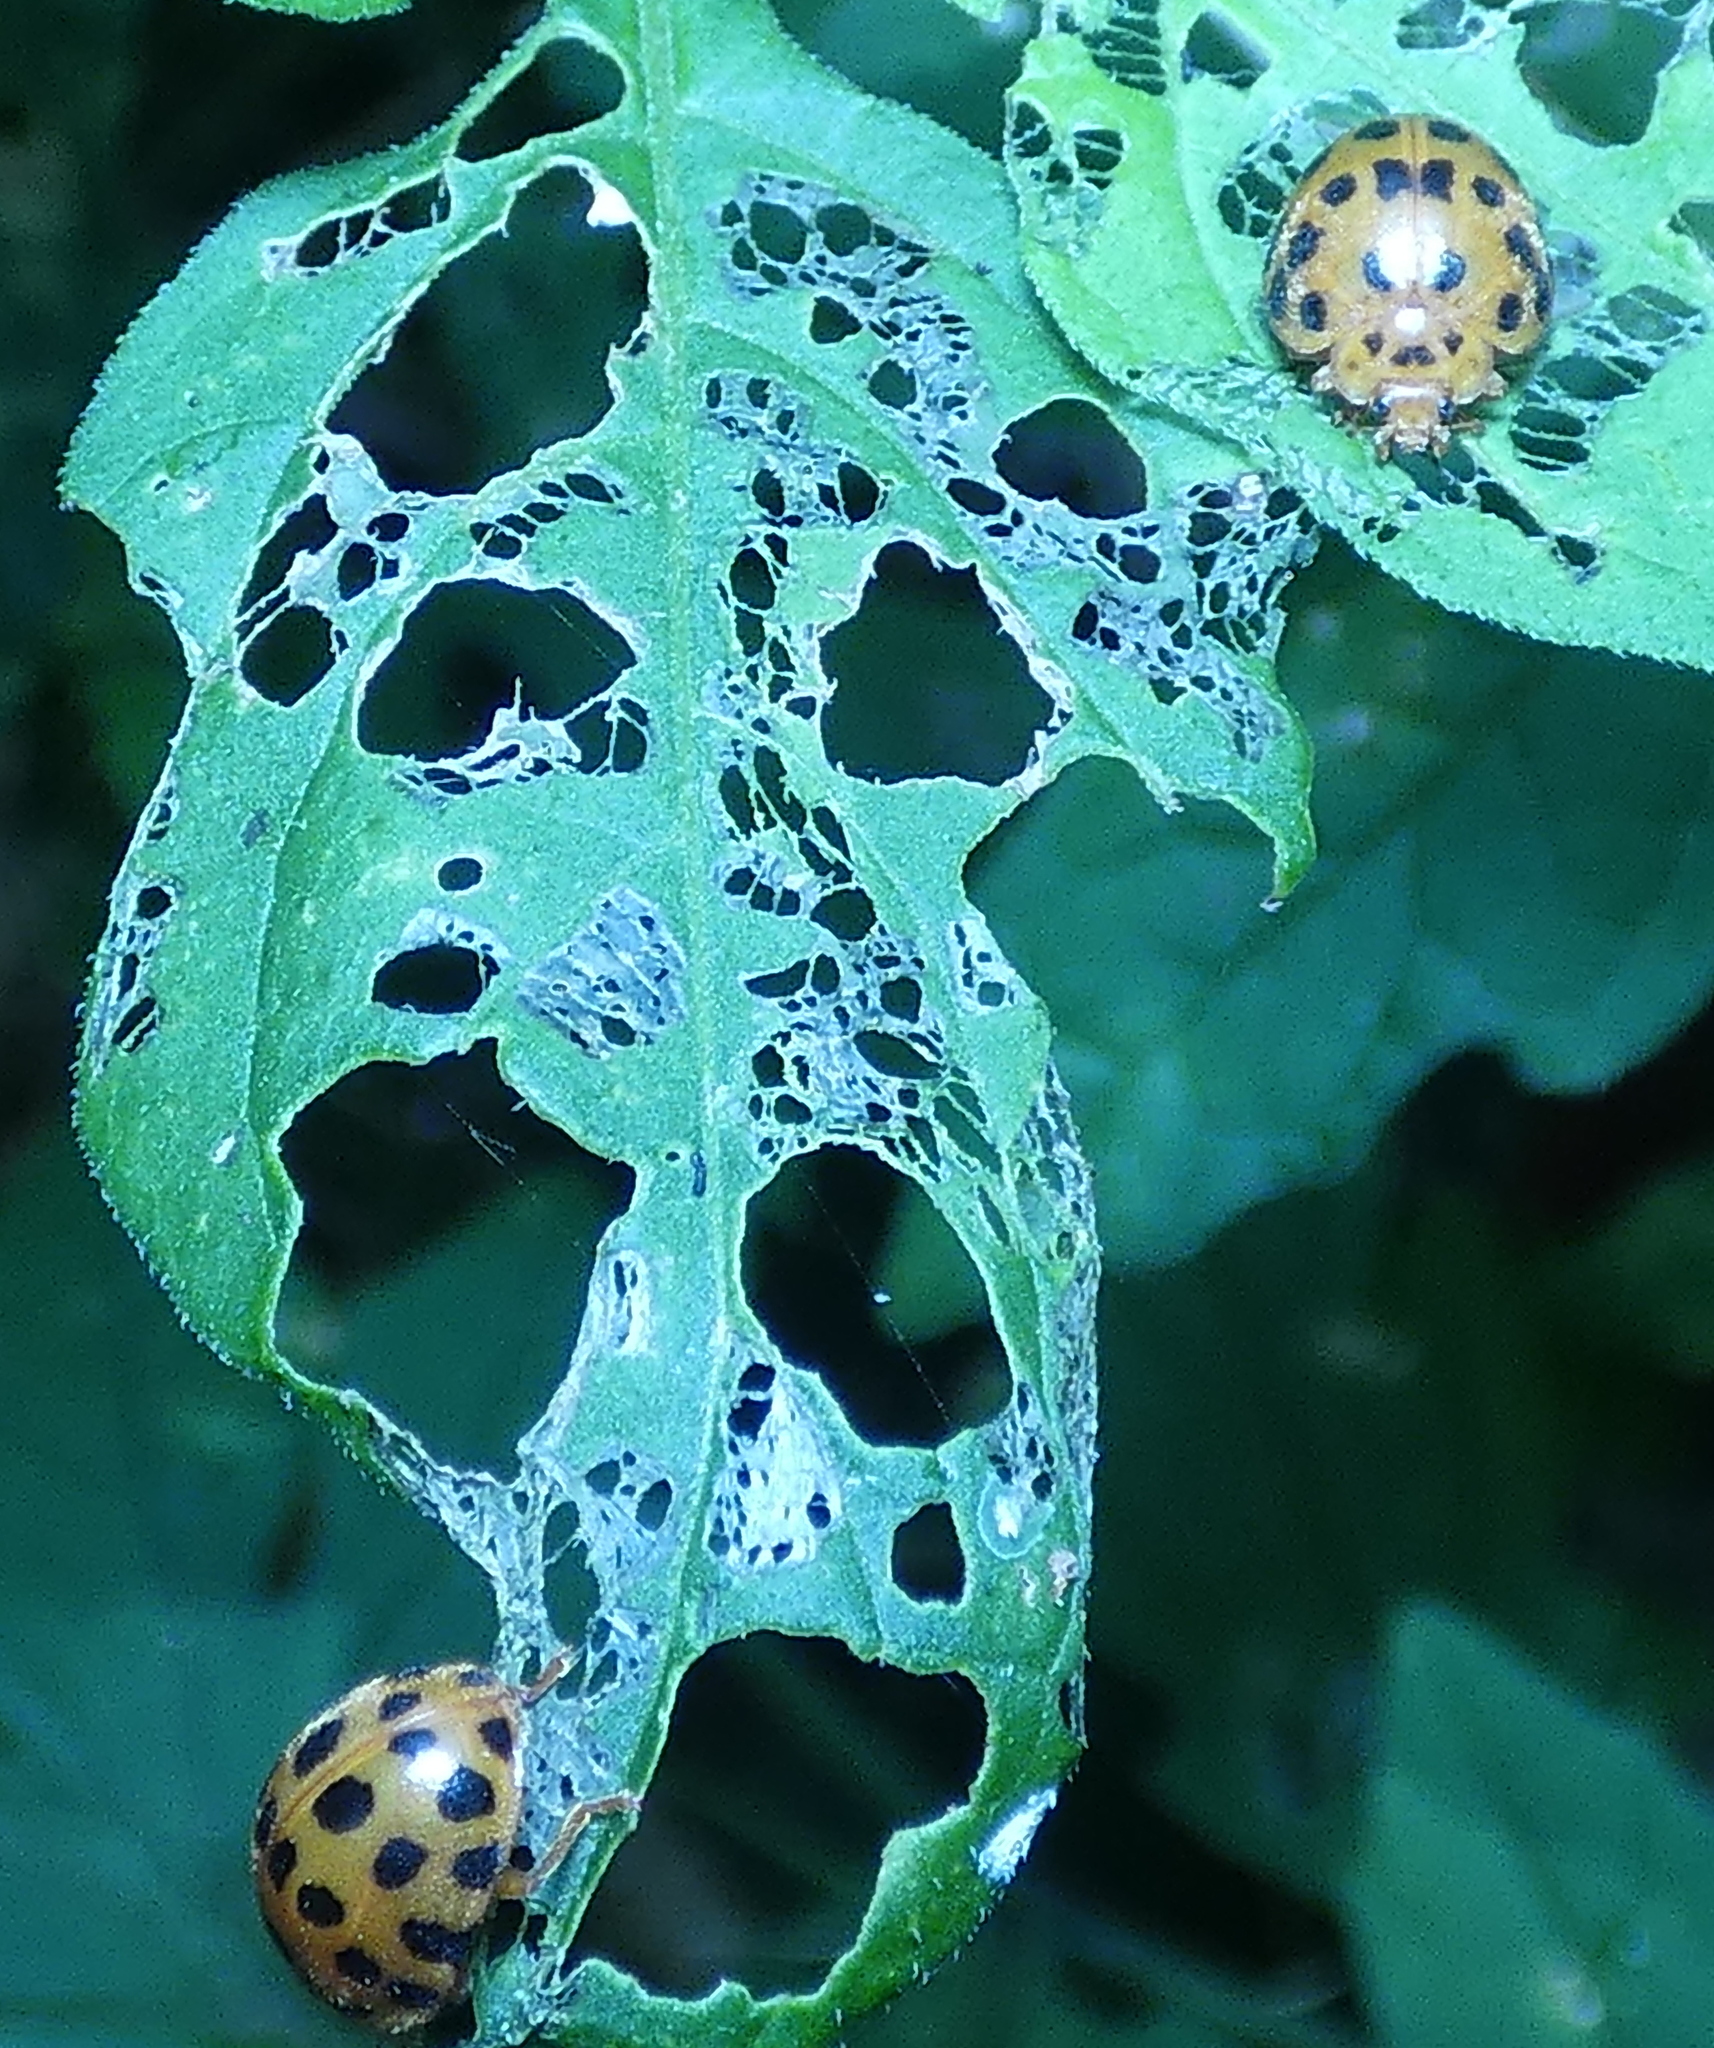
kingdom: Animalia
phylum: Arthropoda
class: Insecta
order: Coleoptera
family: Coccinellidae
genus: Henosepilachna
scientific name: Henosepilachna vigintioctopunctata
